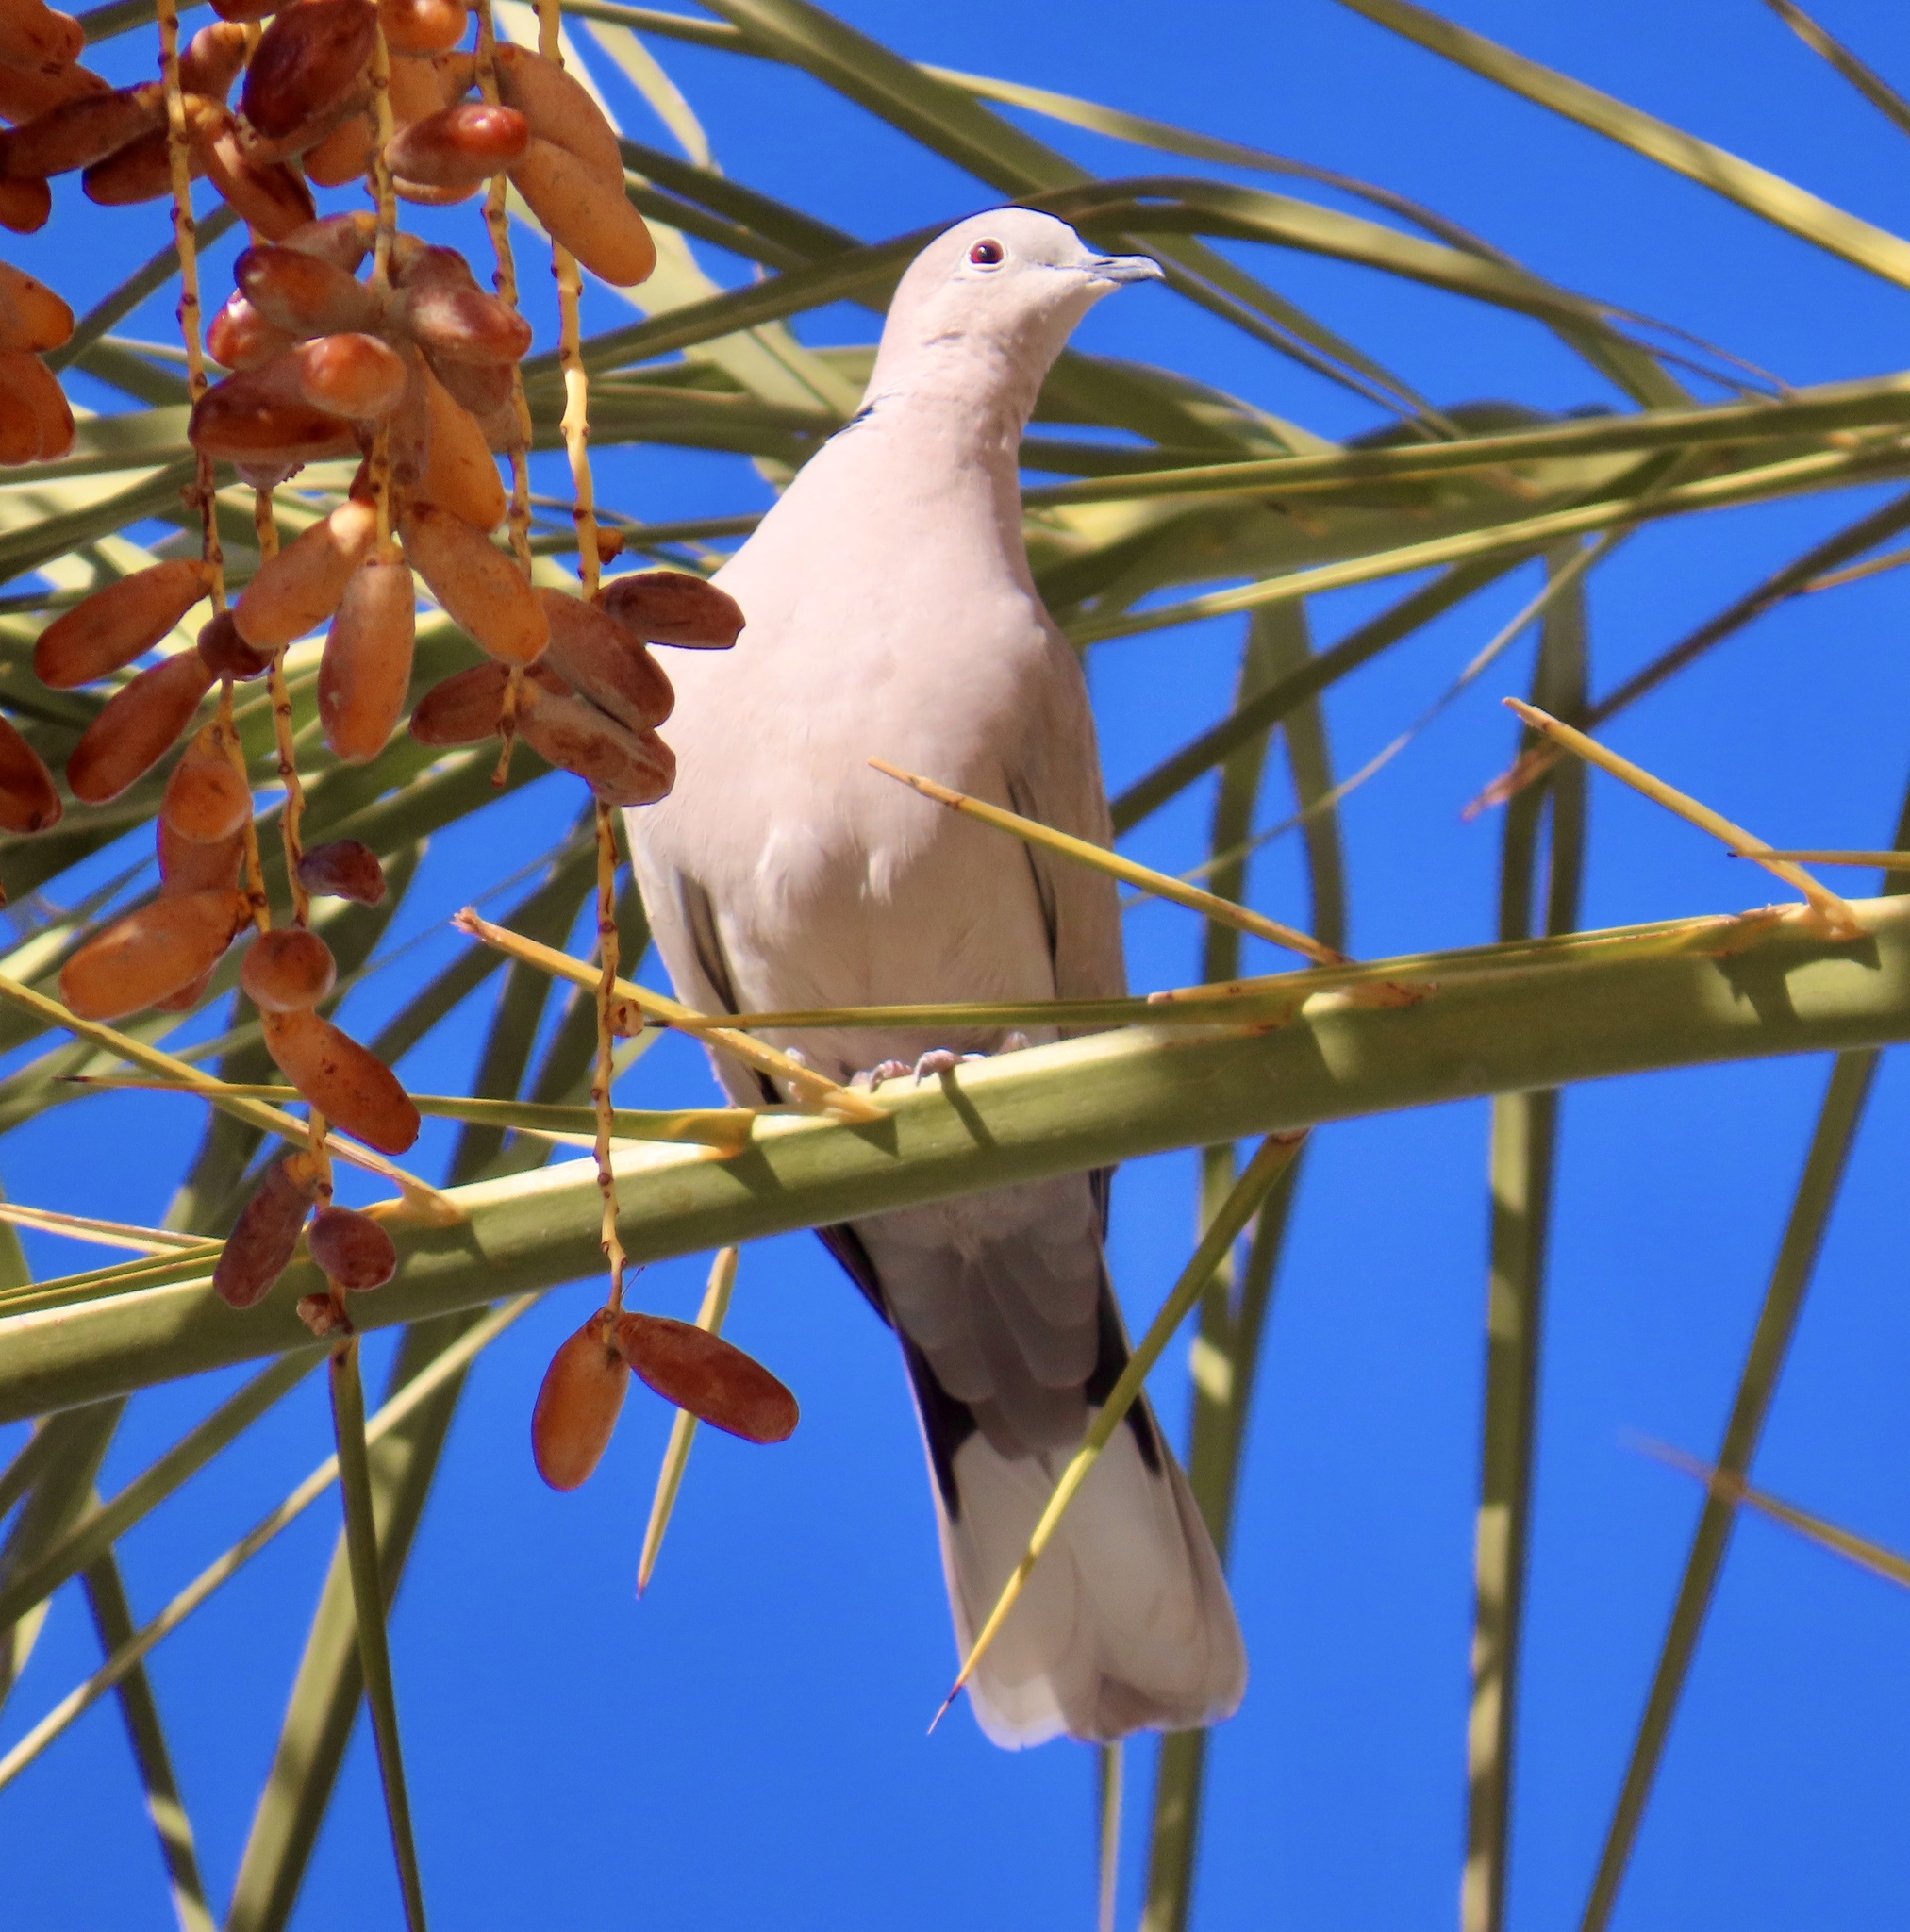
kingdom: Animalia
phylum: Chordata
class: Aves
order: Columbiformes
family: Columbidae
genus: Streptopelia
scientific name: Streptopelia decaocto
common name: Eurasian collared dove
